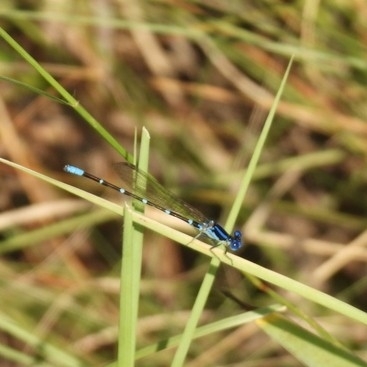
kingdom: Animalia
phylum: Arthropoda
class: Insecta
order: Odonata
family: Coenagrionidae
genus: Argia
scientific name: Argia sedula
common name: Blue-ringed dancer
